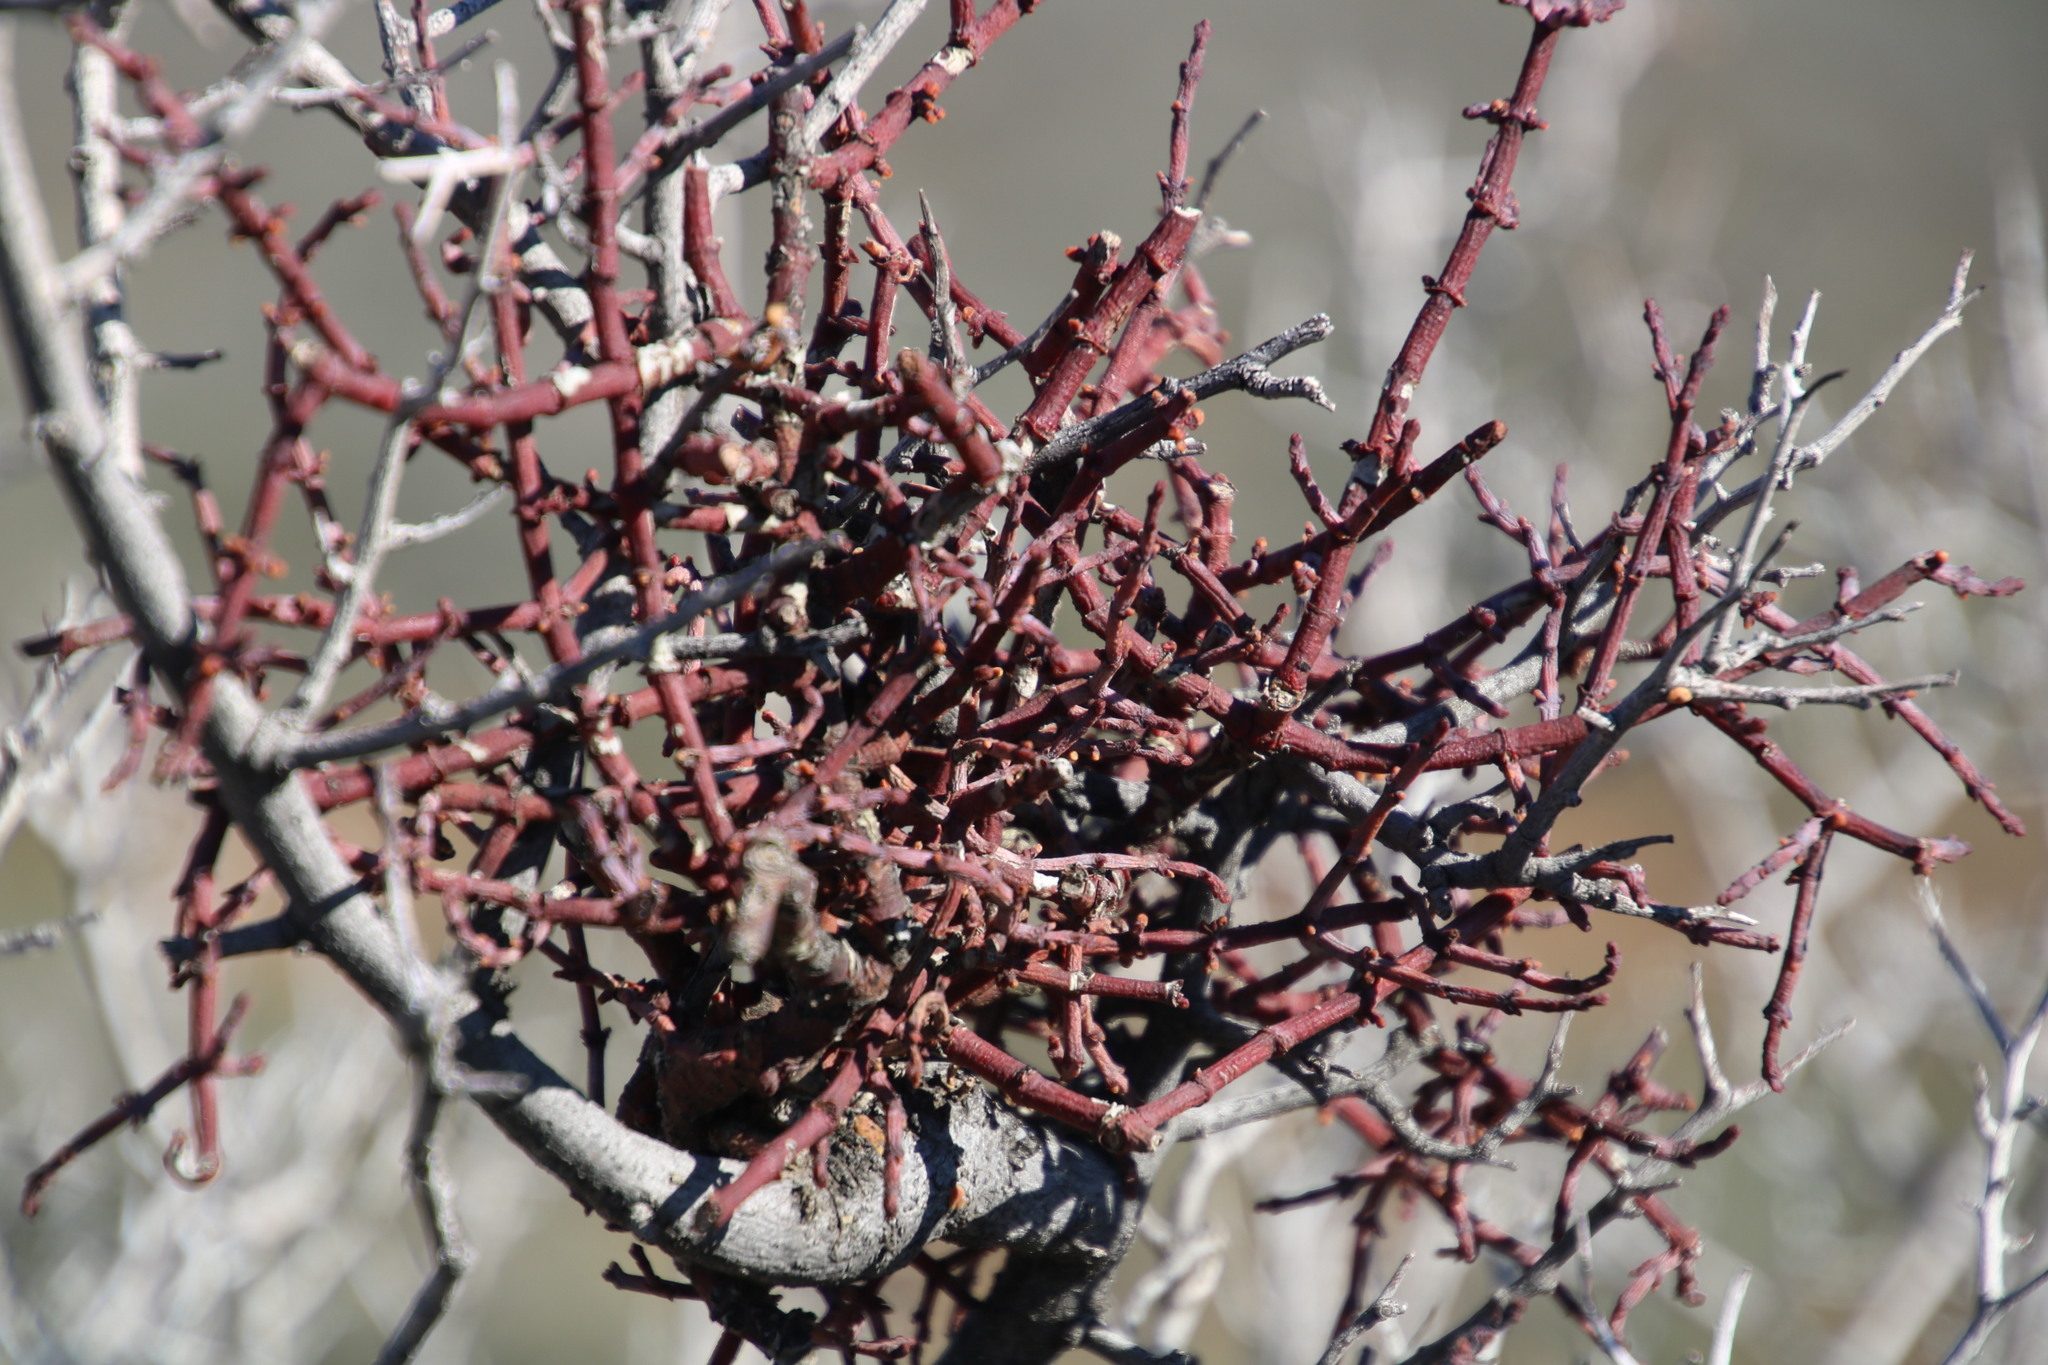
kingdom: Plantae
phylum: Tracheophyta
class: Magnoliopsida
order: Santalales
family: Viscaceae
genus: Viscum
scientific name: Viscum capense
